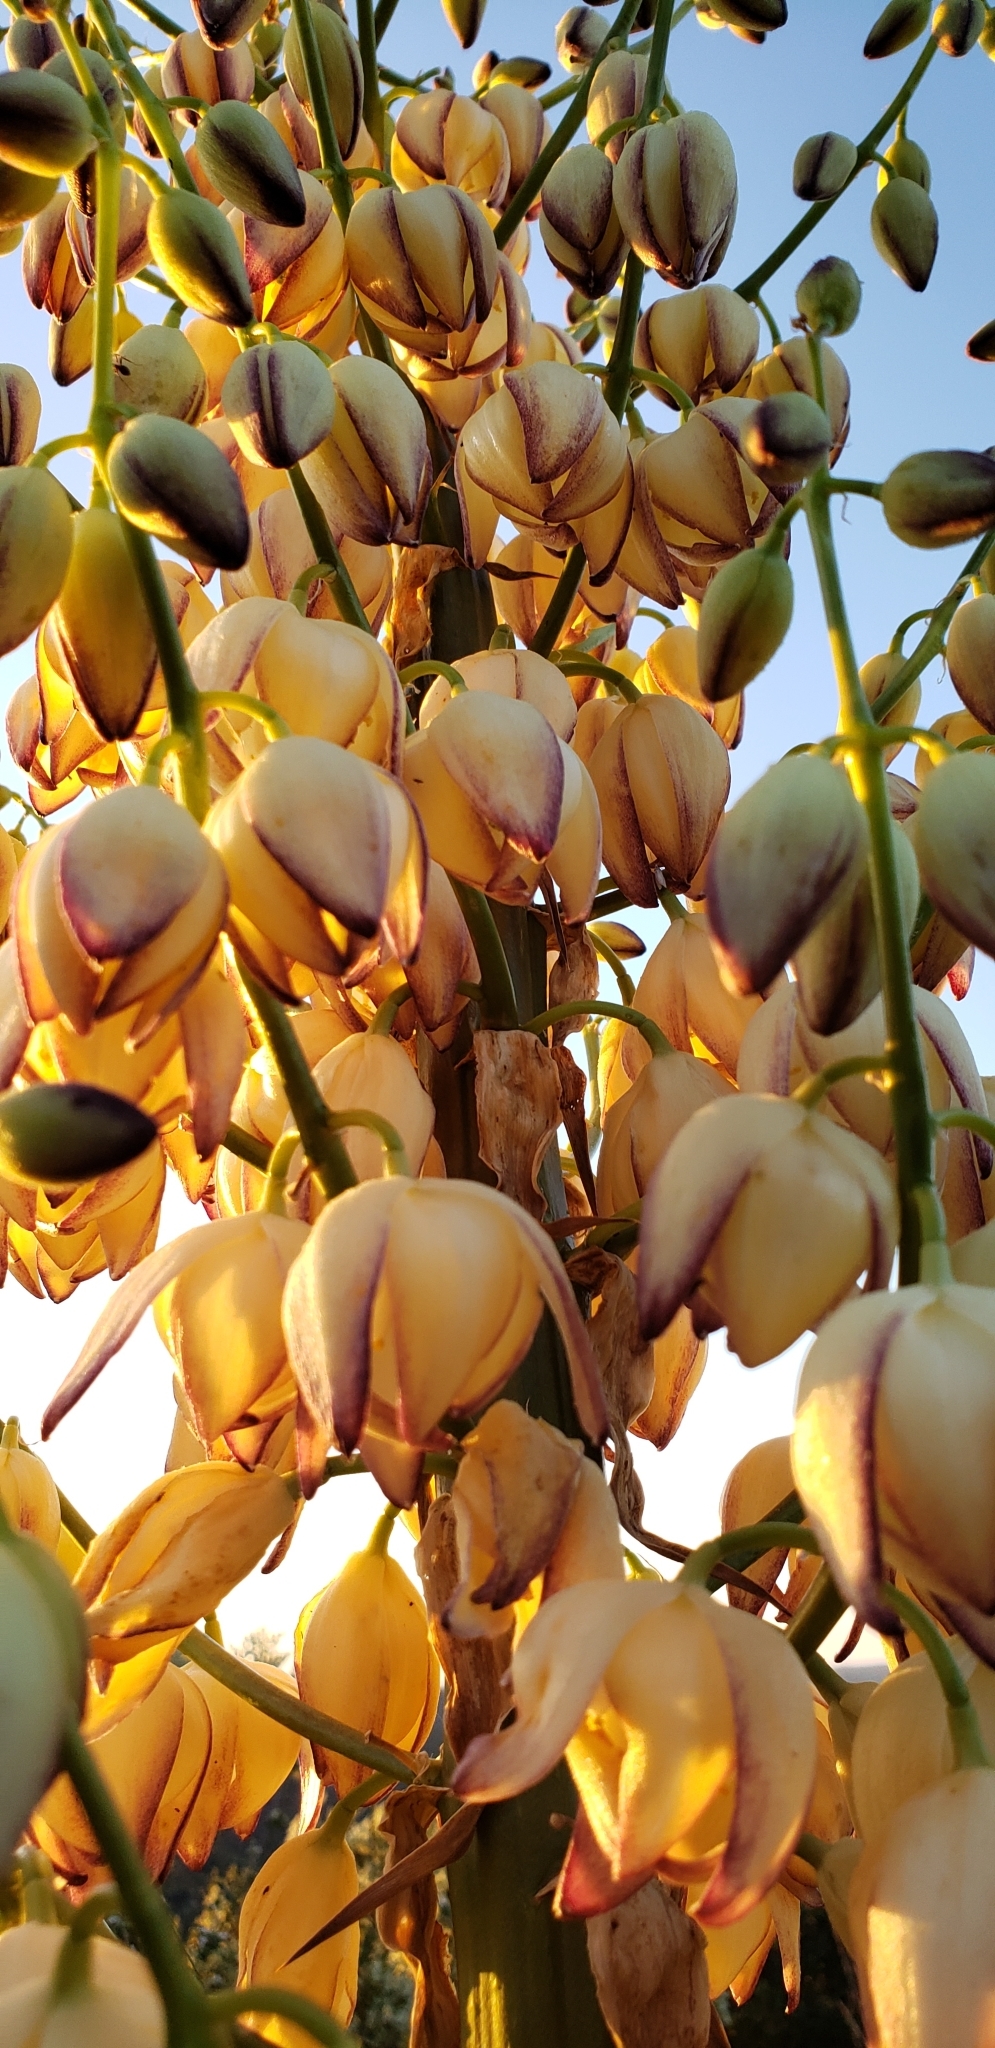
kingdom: Plantae
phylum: Tracheophyta
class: Liliopsida
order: Asparagales
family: Asparagaceae
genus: Hesperoyucca
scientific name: Hesperoyucca whipplei
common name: Our lord's-candle
